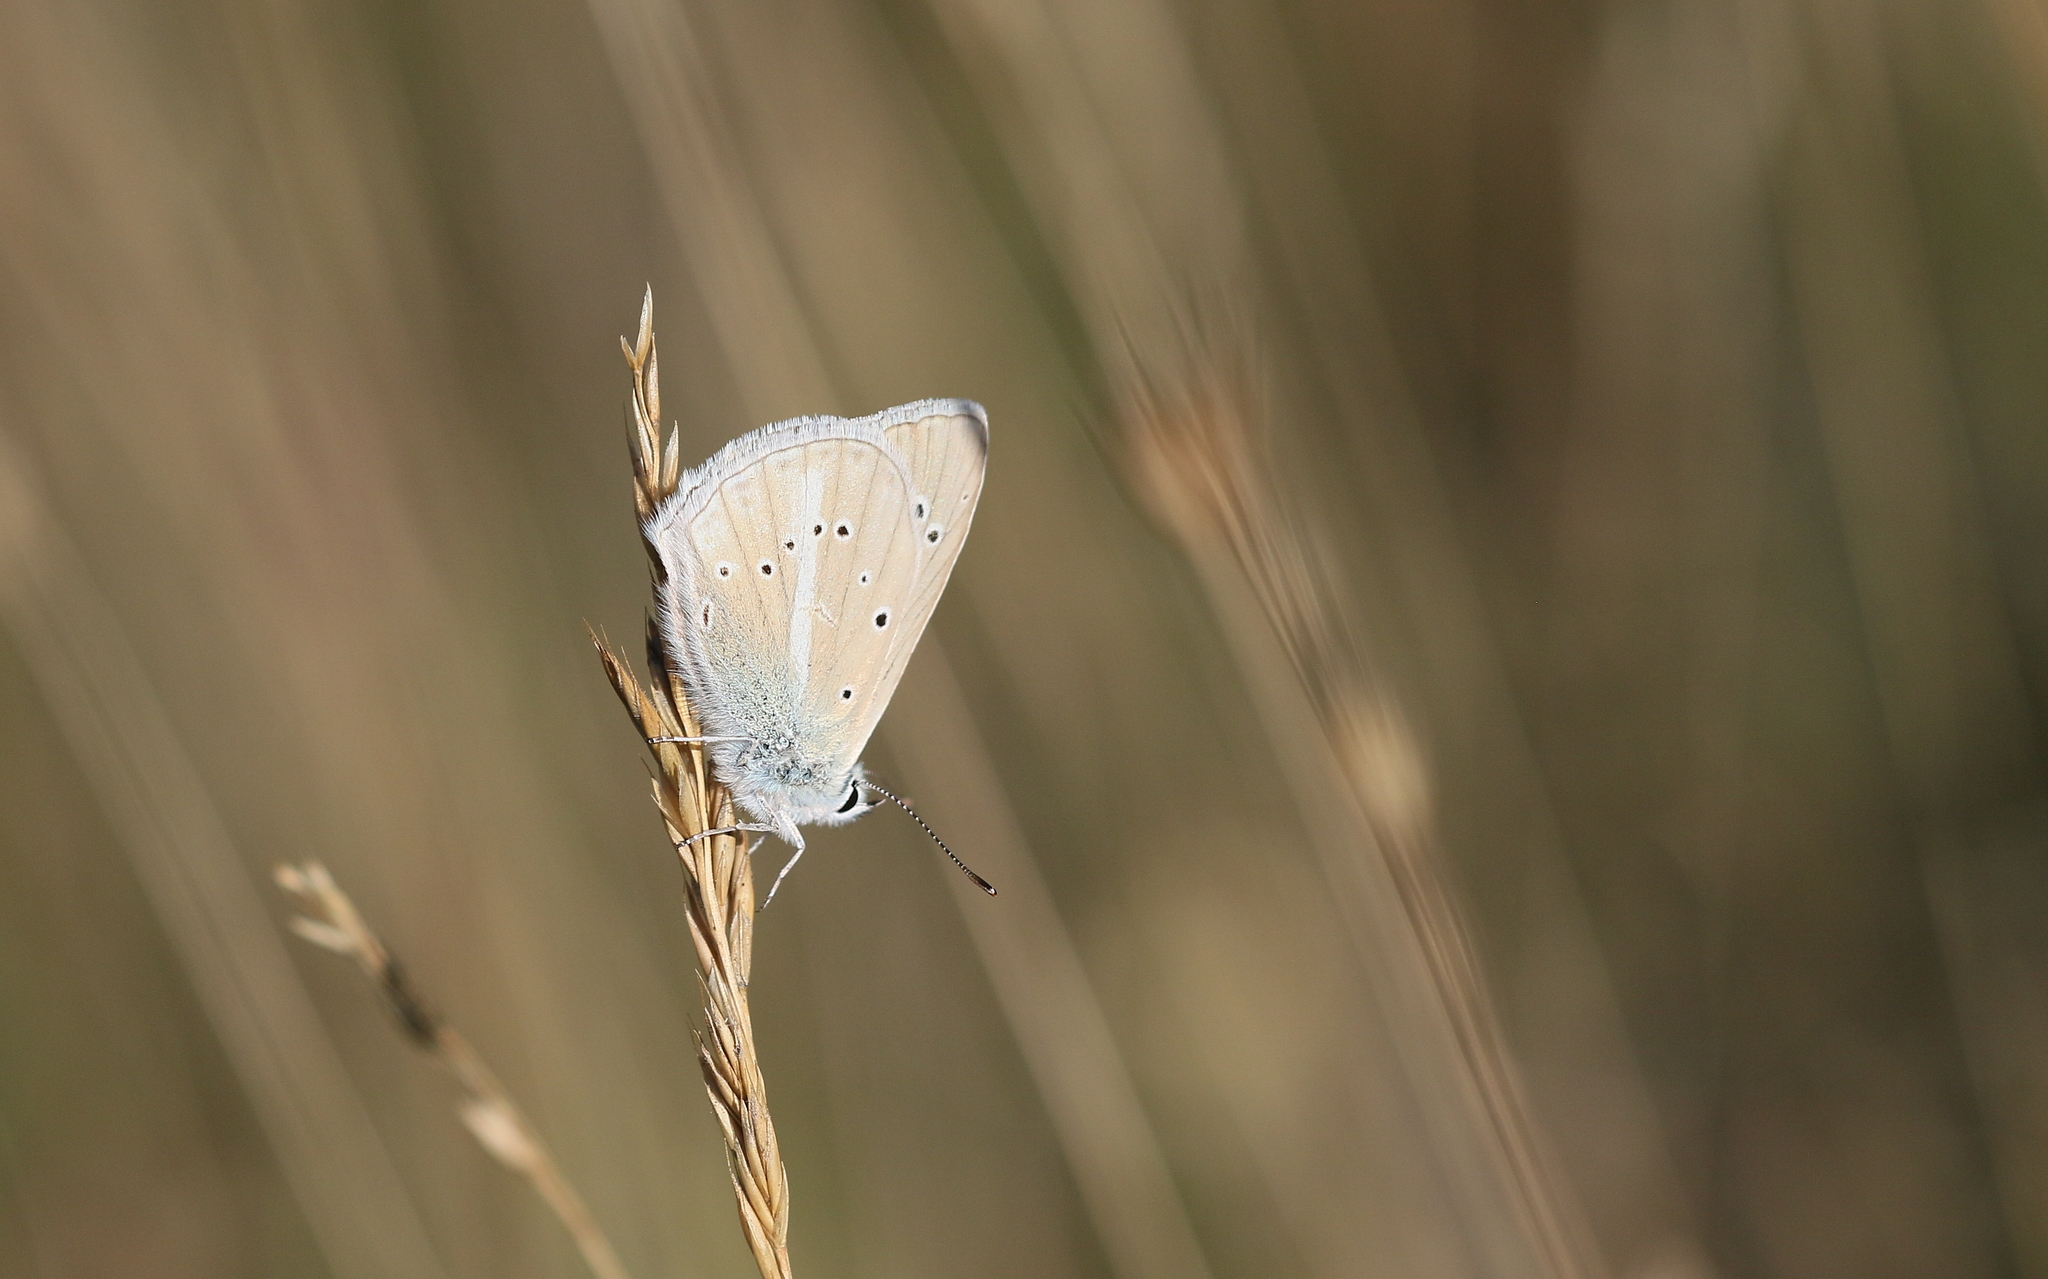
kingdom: Animalia
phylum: Arthropoda
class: Insecta
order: Lepidoptera
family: Lycaenidae
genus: Agrodiaetus
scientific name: Agrodiaetus dolus
